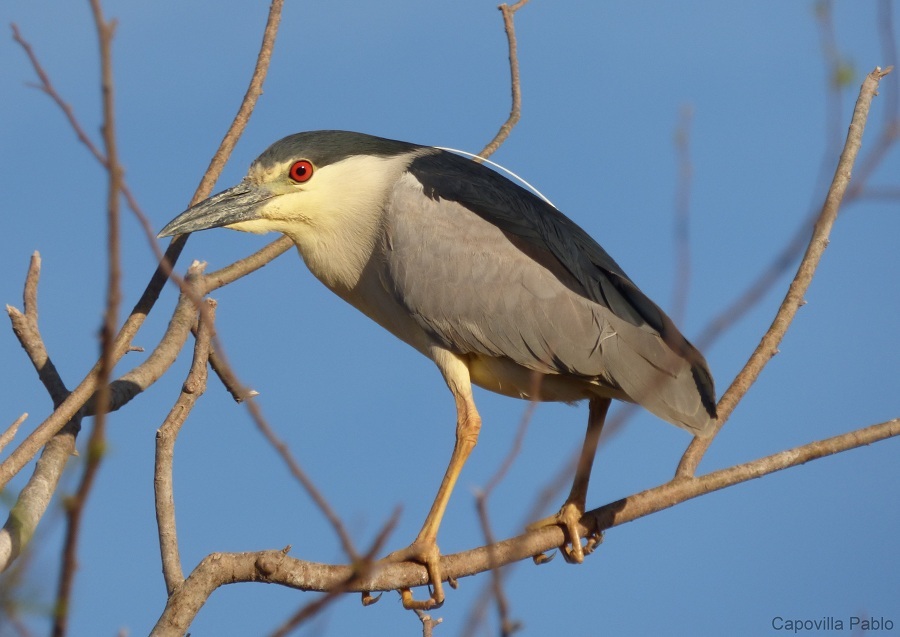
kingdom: Animalia
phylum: Chordata
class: Aves
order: Pelecaniformes
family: Ardeidae
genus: Nycticorax
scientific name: Nycticorax nycticorax
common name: Black-crowned night heron
